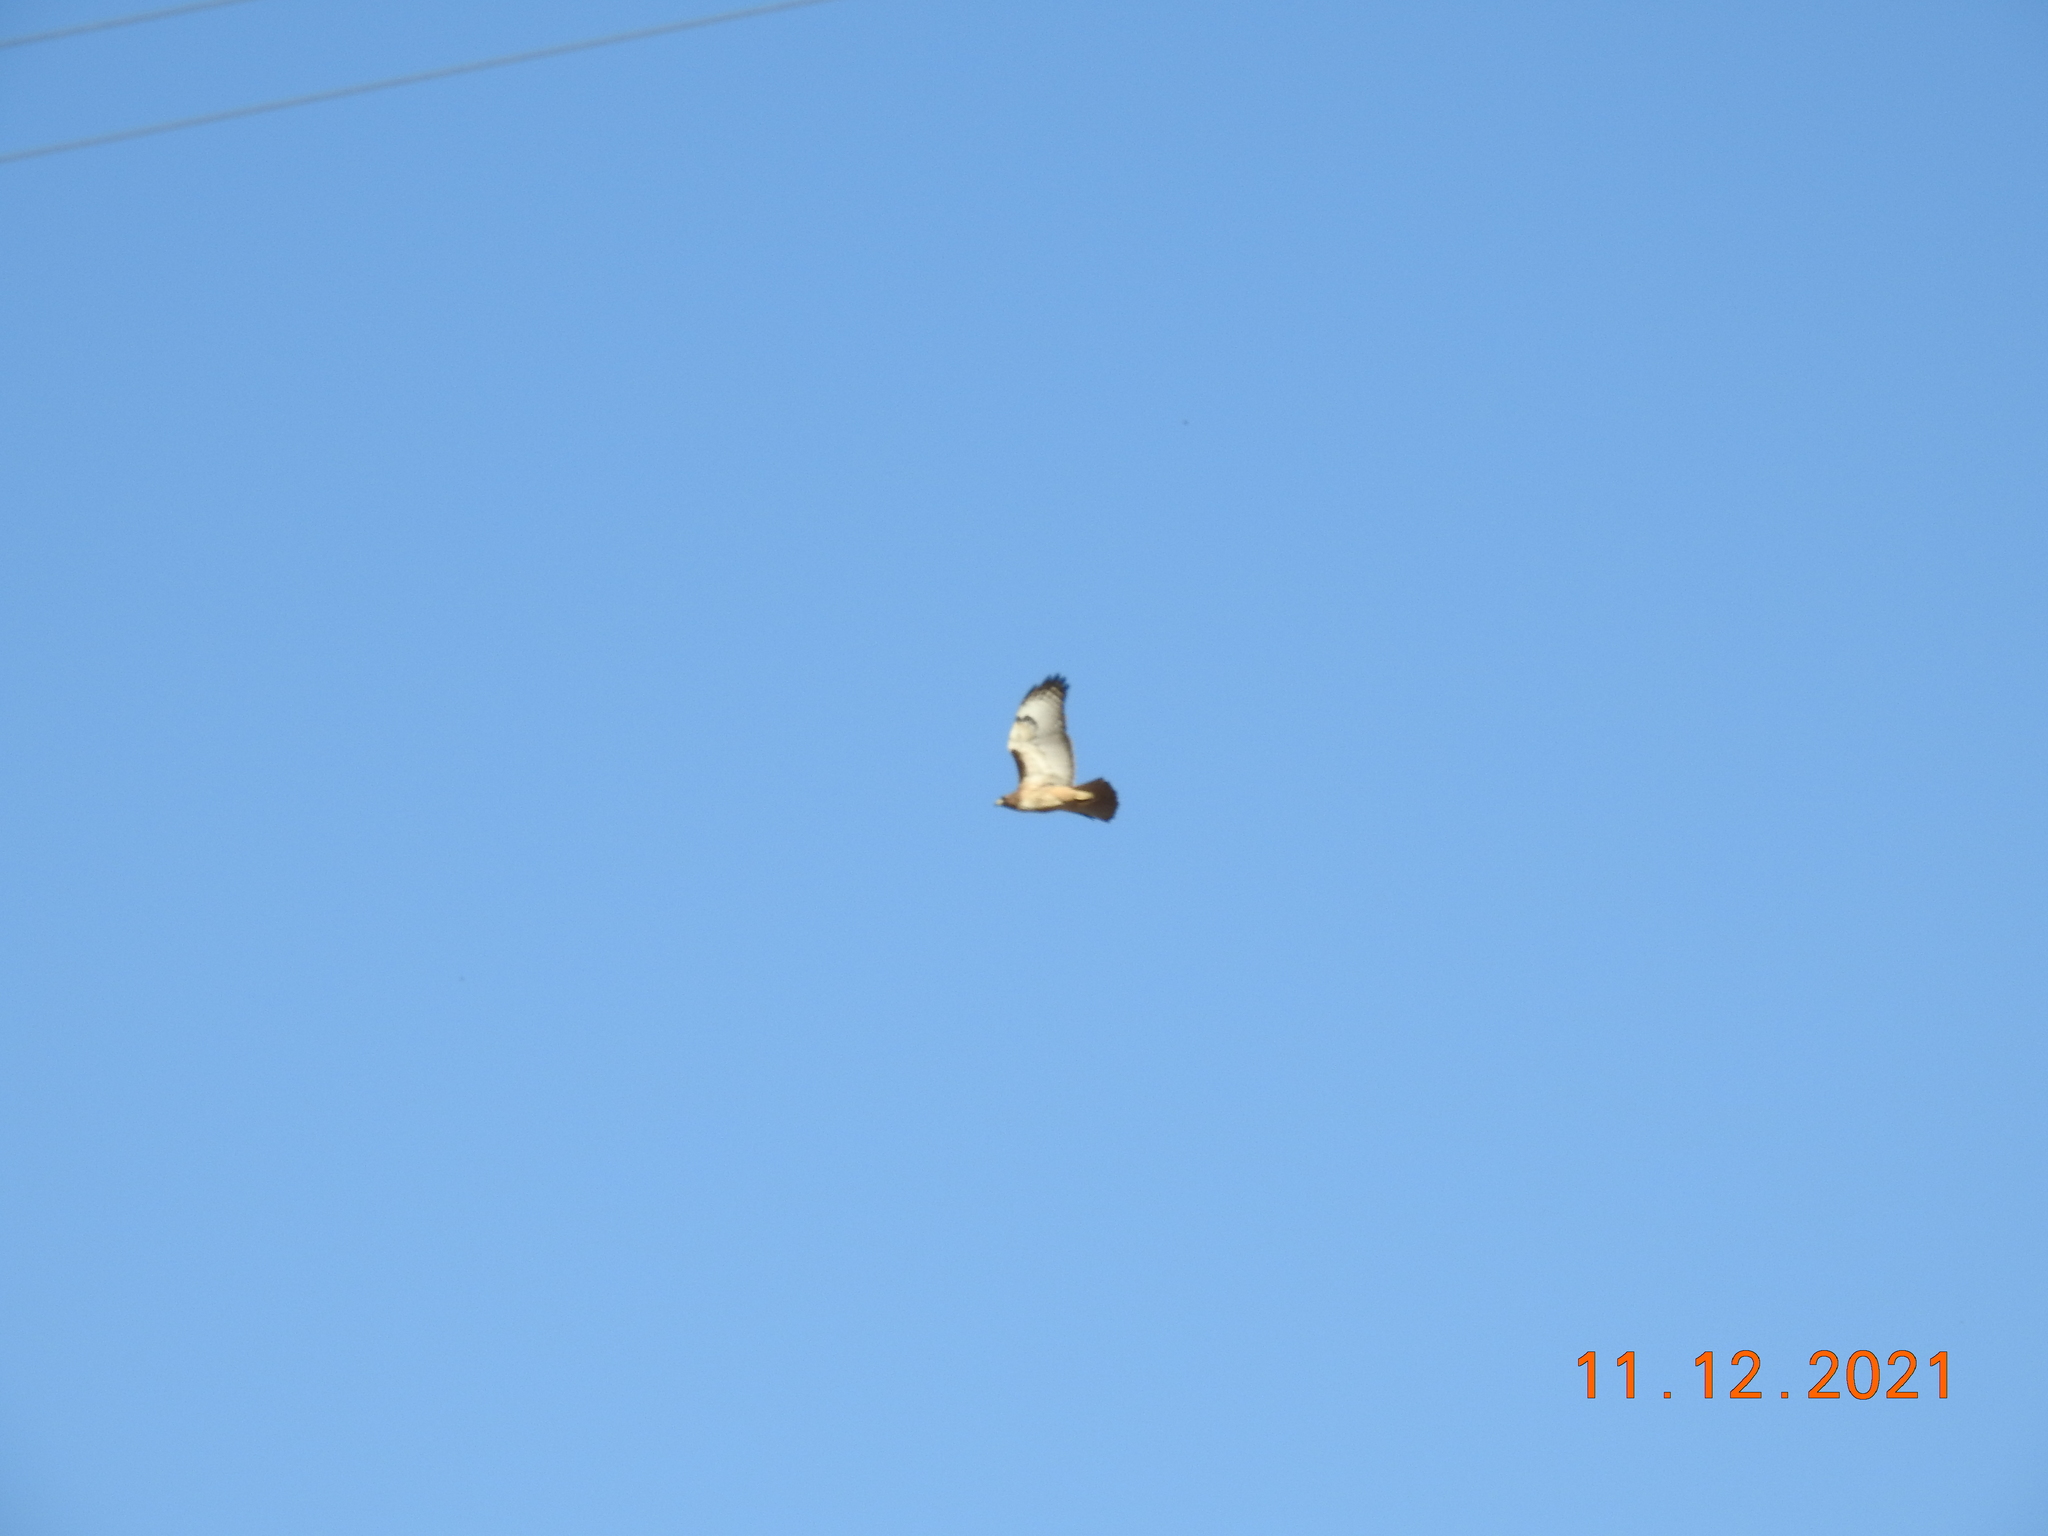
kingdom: Animalia
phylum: Chordata
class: Aves
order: Accipitriformes
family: Accipitridae
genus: Buteo
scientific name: Buteo jamaicensis
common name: Red-tailed hawk
